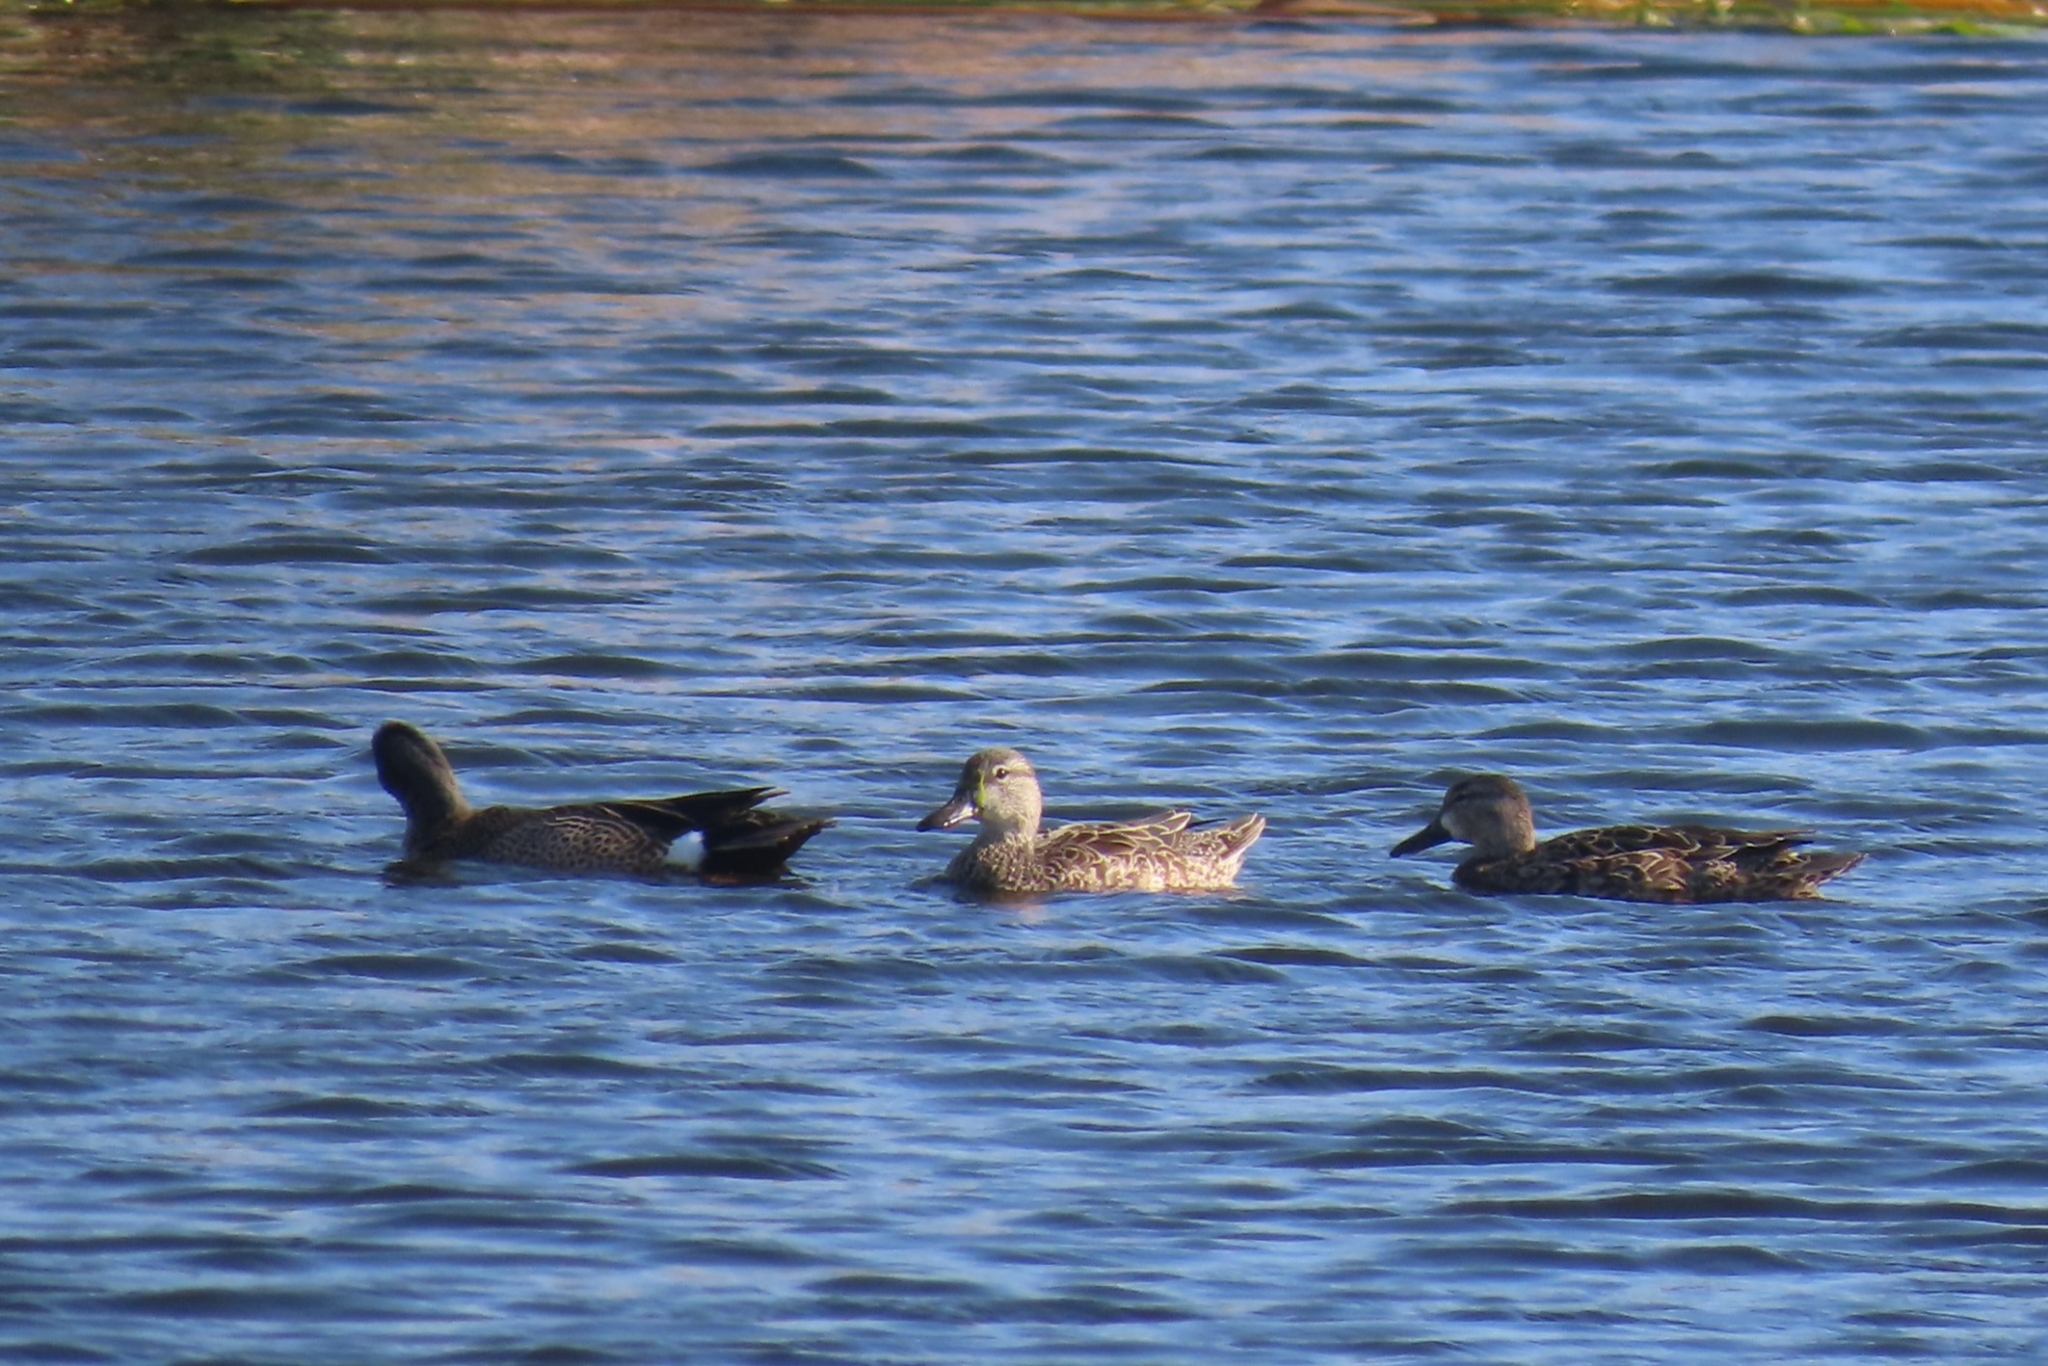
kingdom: Animalia
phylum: Chordata
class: Aves
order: Anseriformes
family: Anatidae
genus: Spatula
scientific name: Spatula discors
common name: Blue-winged teal
